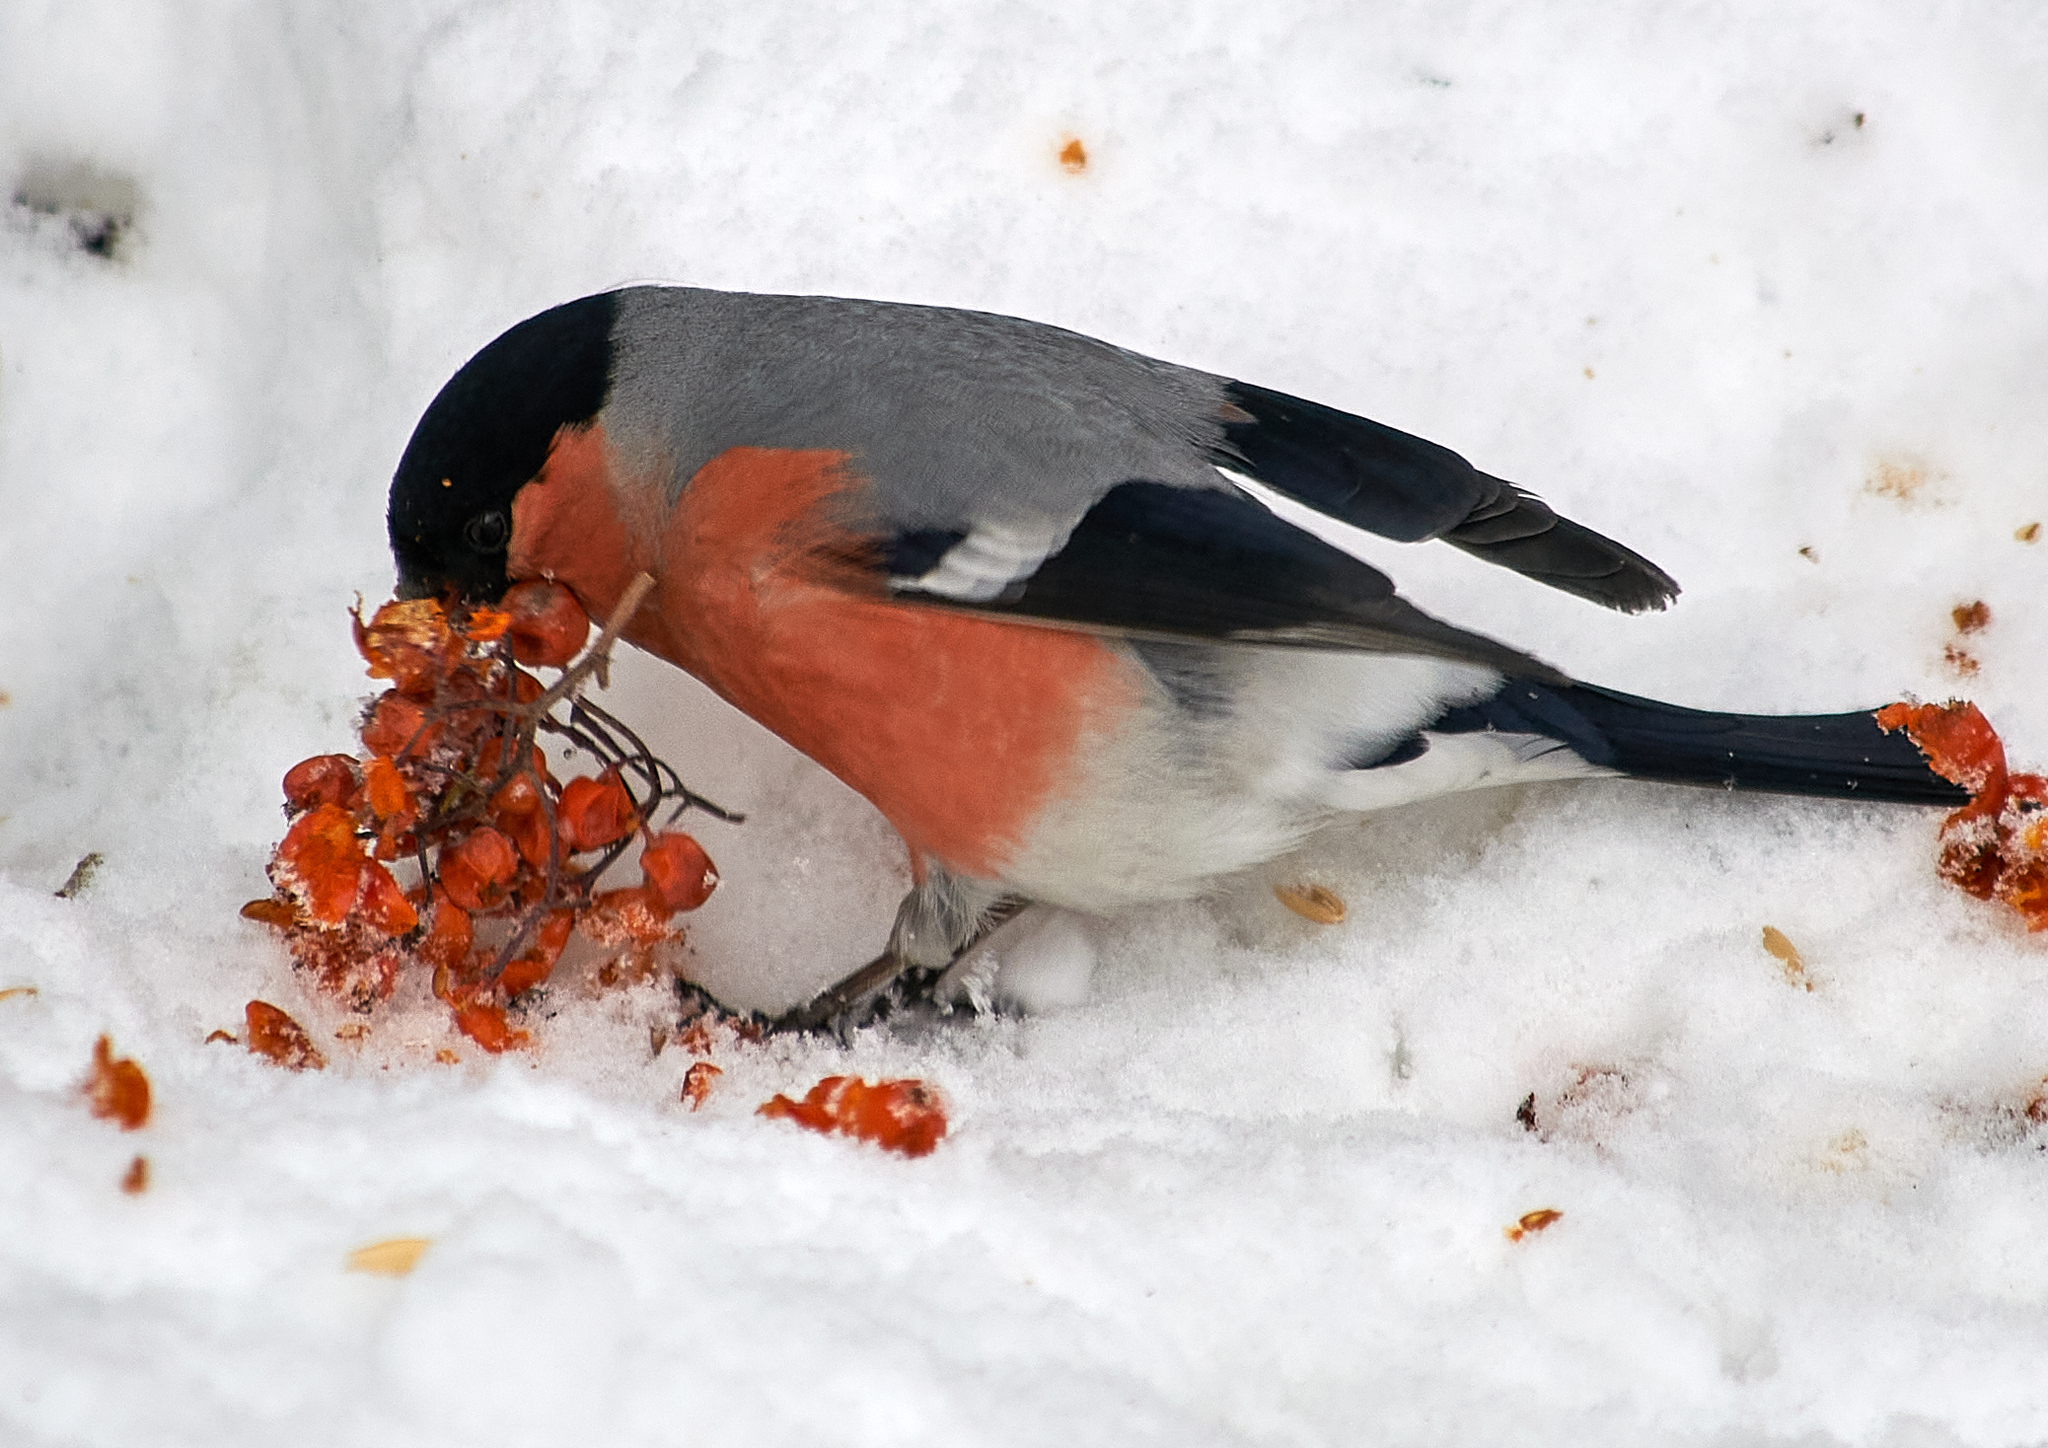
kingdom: Animalia
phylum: Chordata
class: Aves
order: Passeriformes
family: Fringillidae
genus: Pyrrhula
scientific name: Pyrrhula pyrrhula
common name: Eurasian bullfinch
